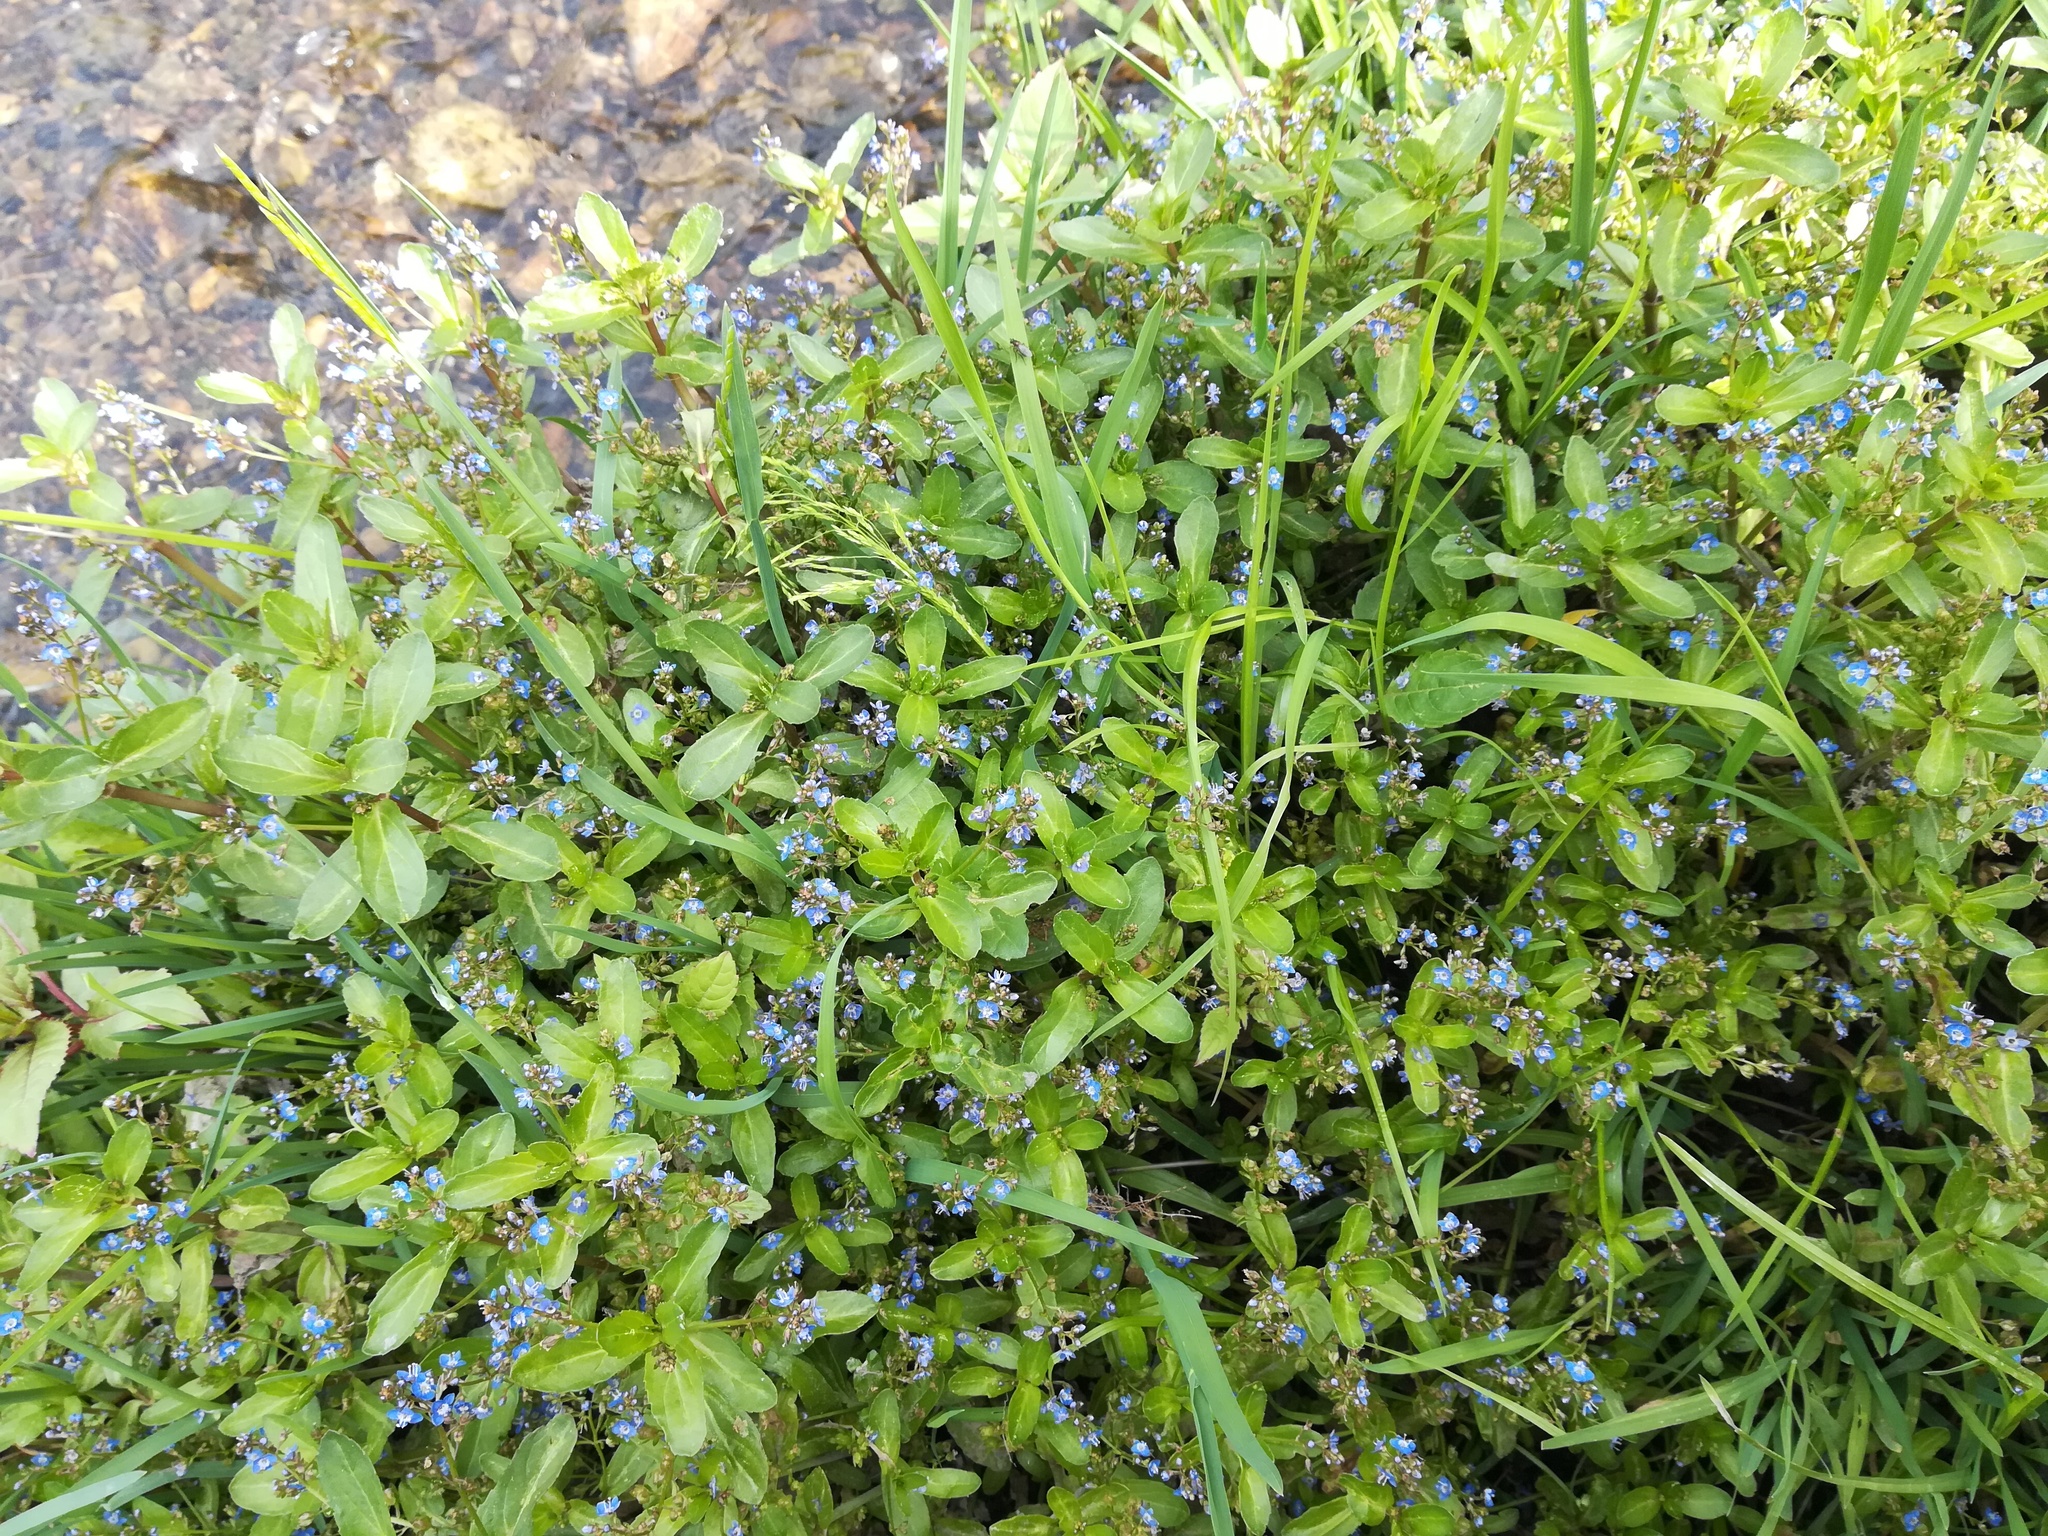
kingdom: Plantae
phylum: Tracheophyta
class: Magnoliopsida
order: Lamiales
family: Plantaginaceae
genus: Veronica
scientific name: Veronica beccabunga
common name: Brooklime
